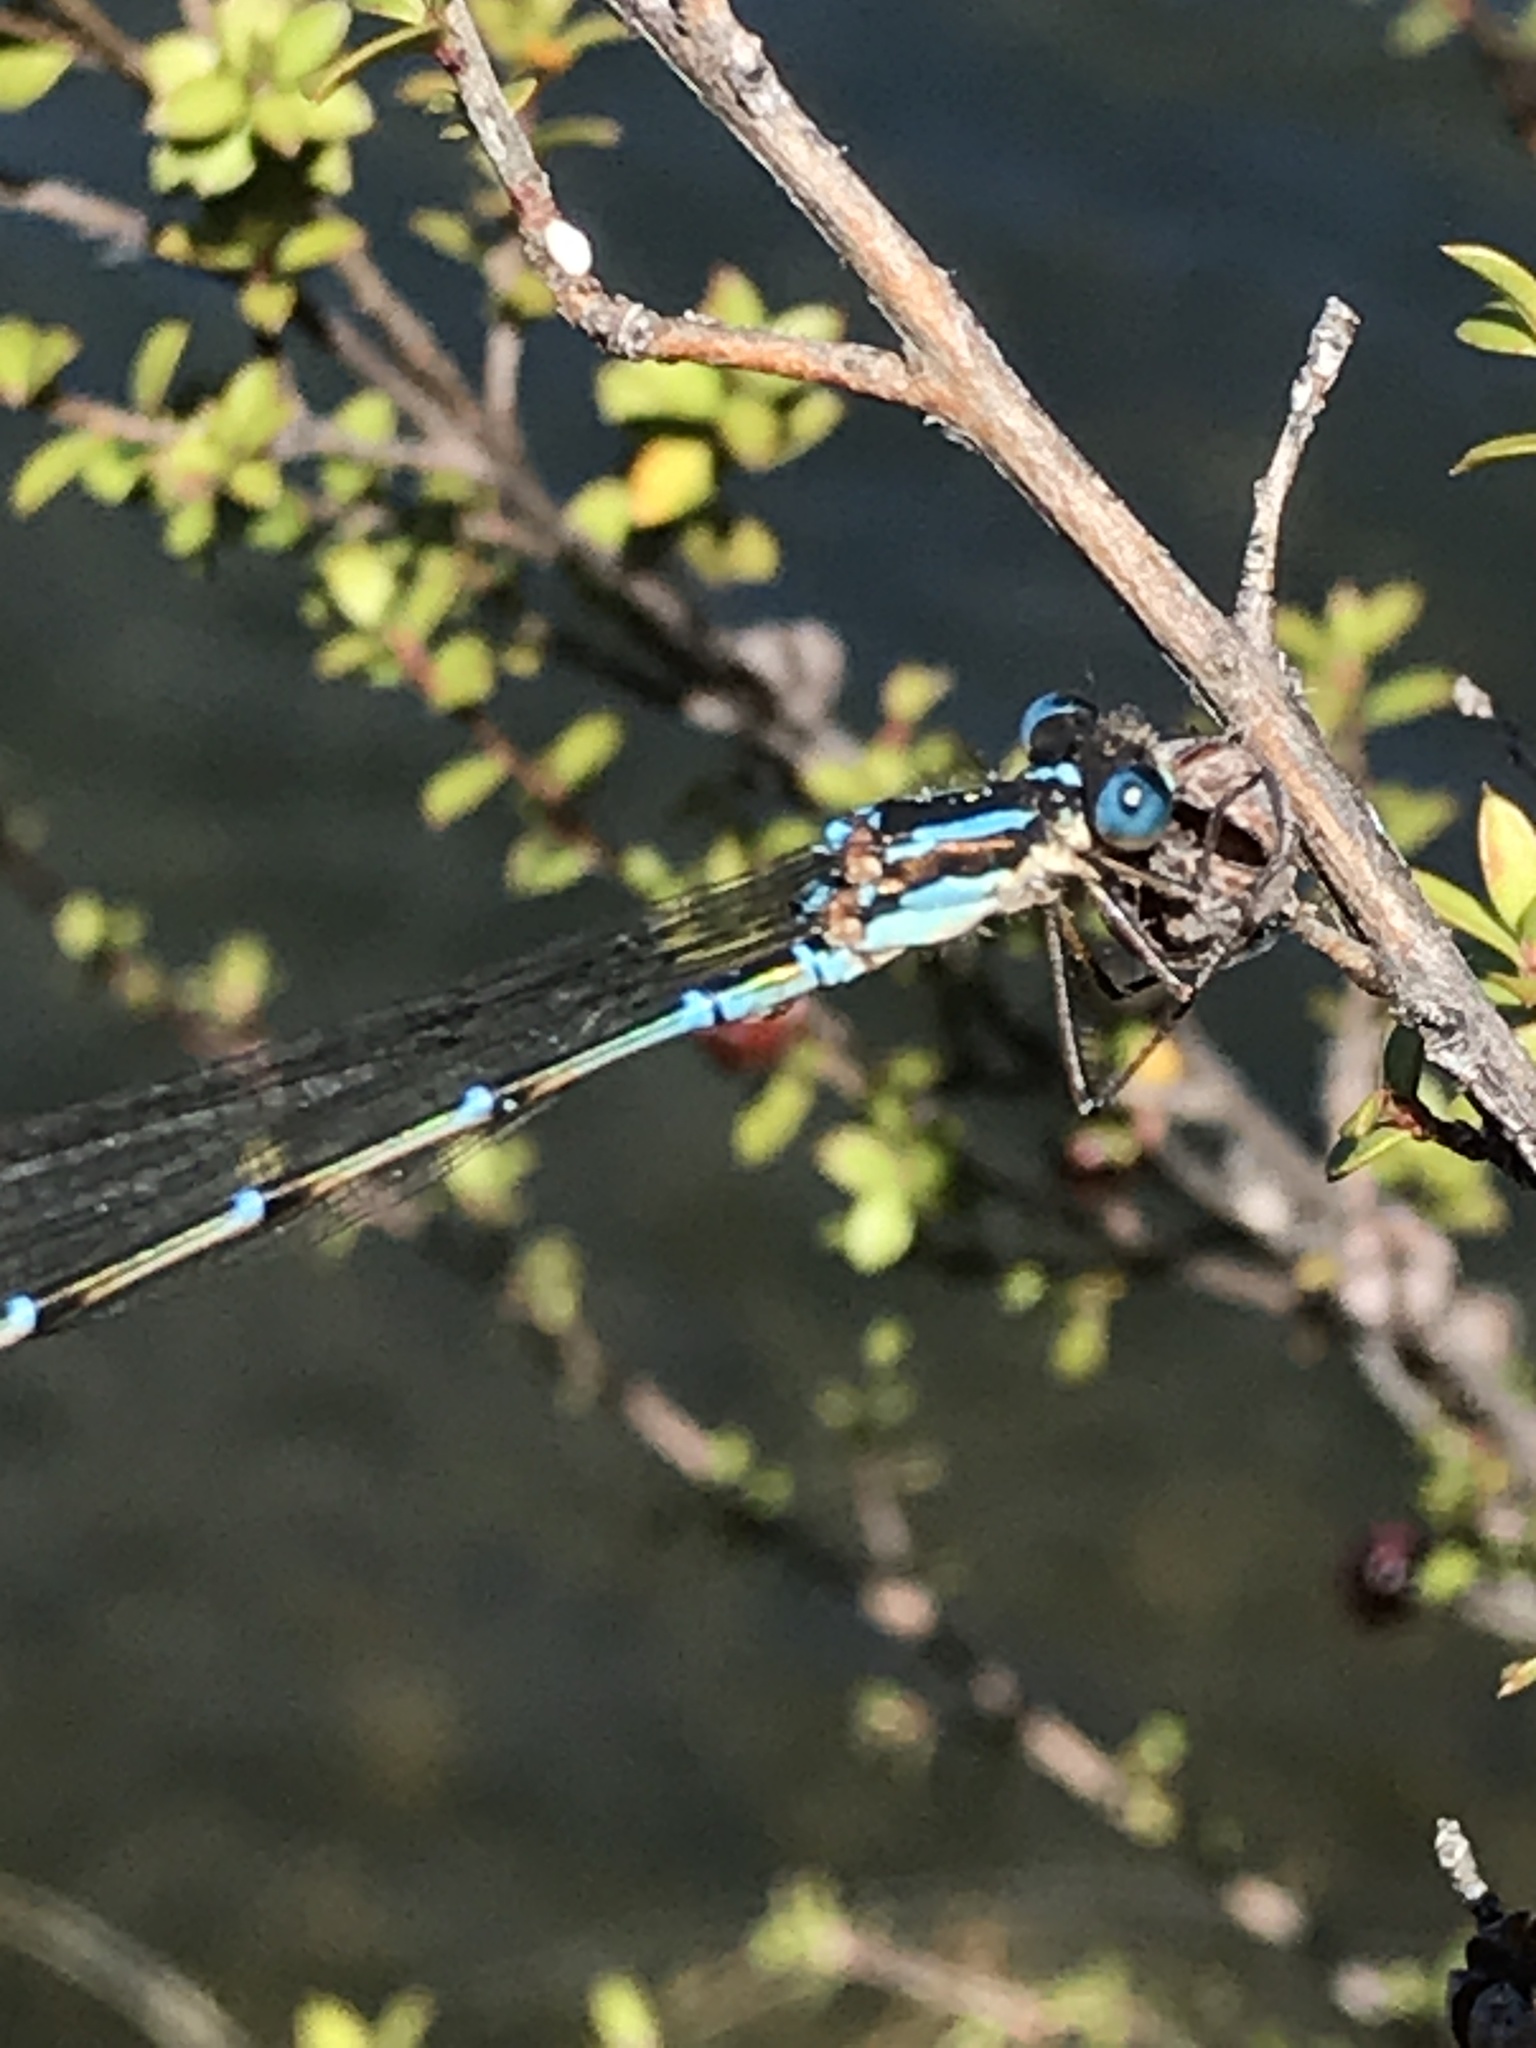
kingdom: Animalia
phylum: Arthropoda
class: Insecta
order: Odonata
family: Lestidae
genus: Austrolestes
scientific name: Austrolestes colensonis
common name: Blue damselfly
